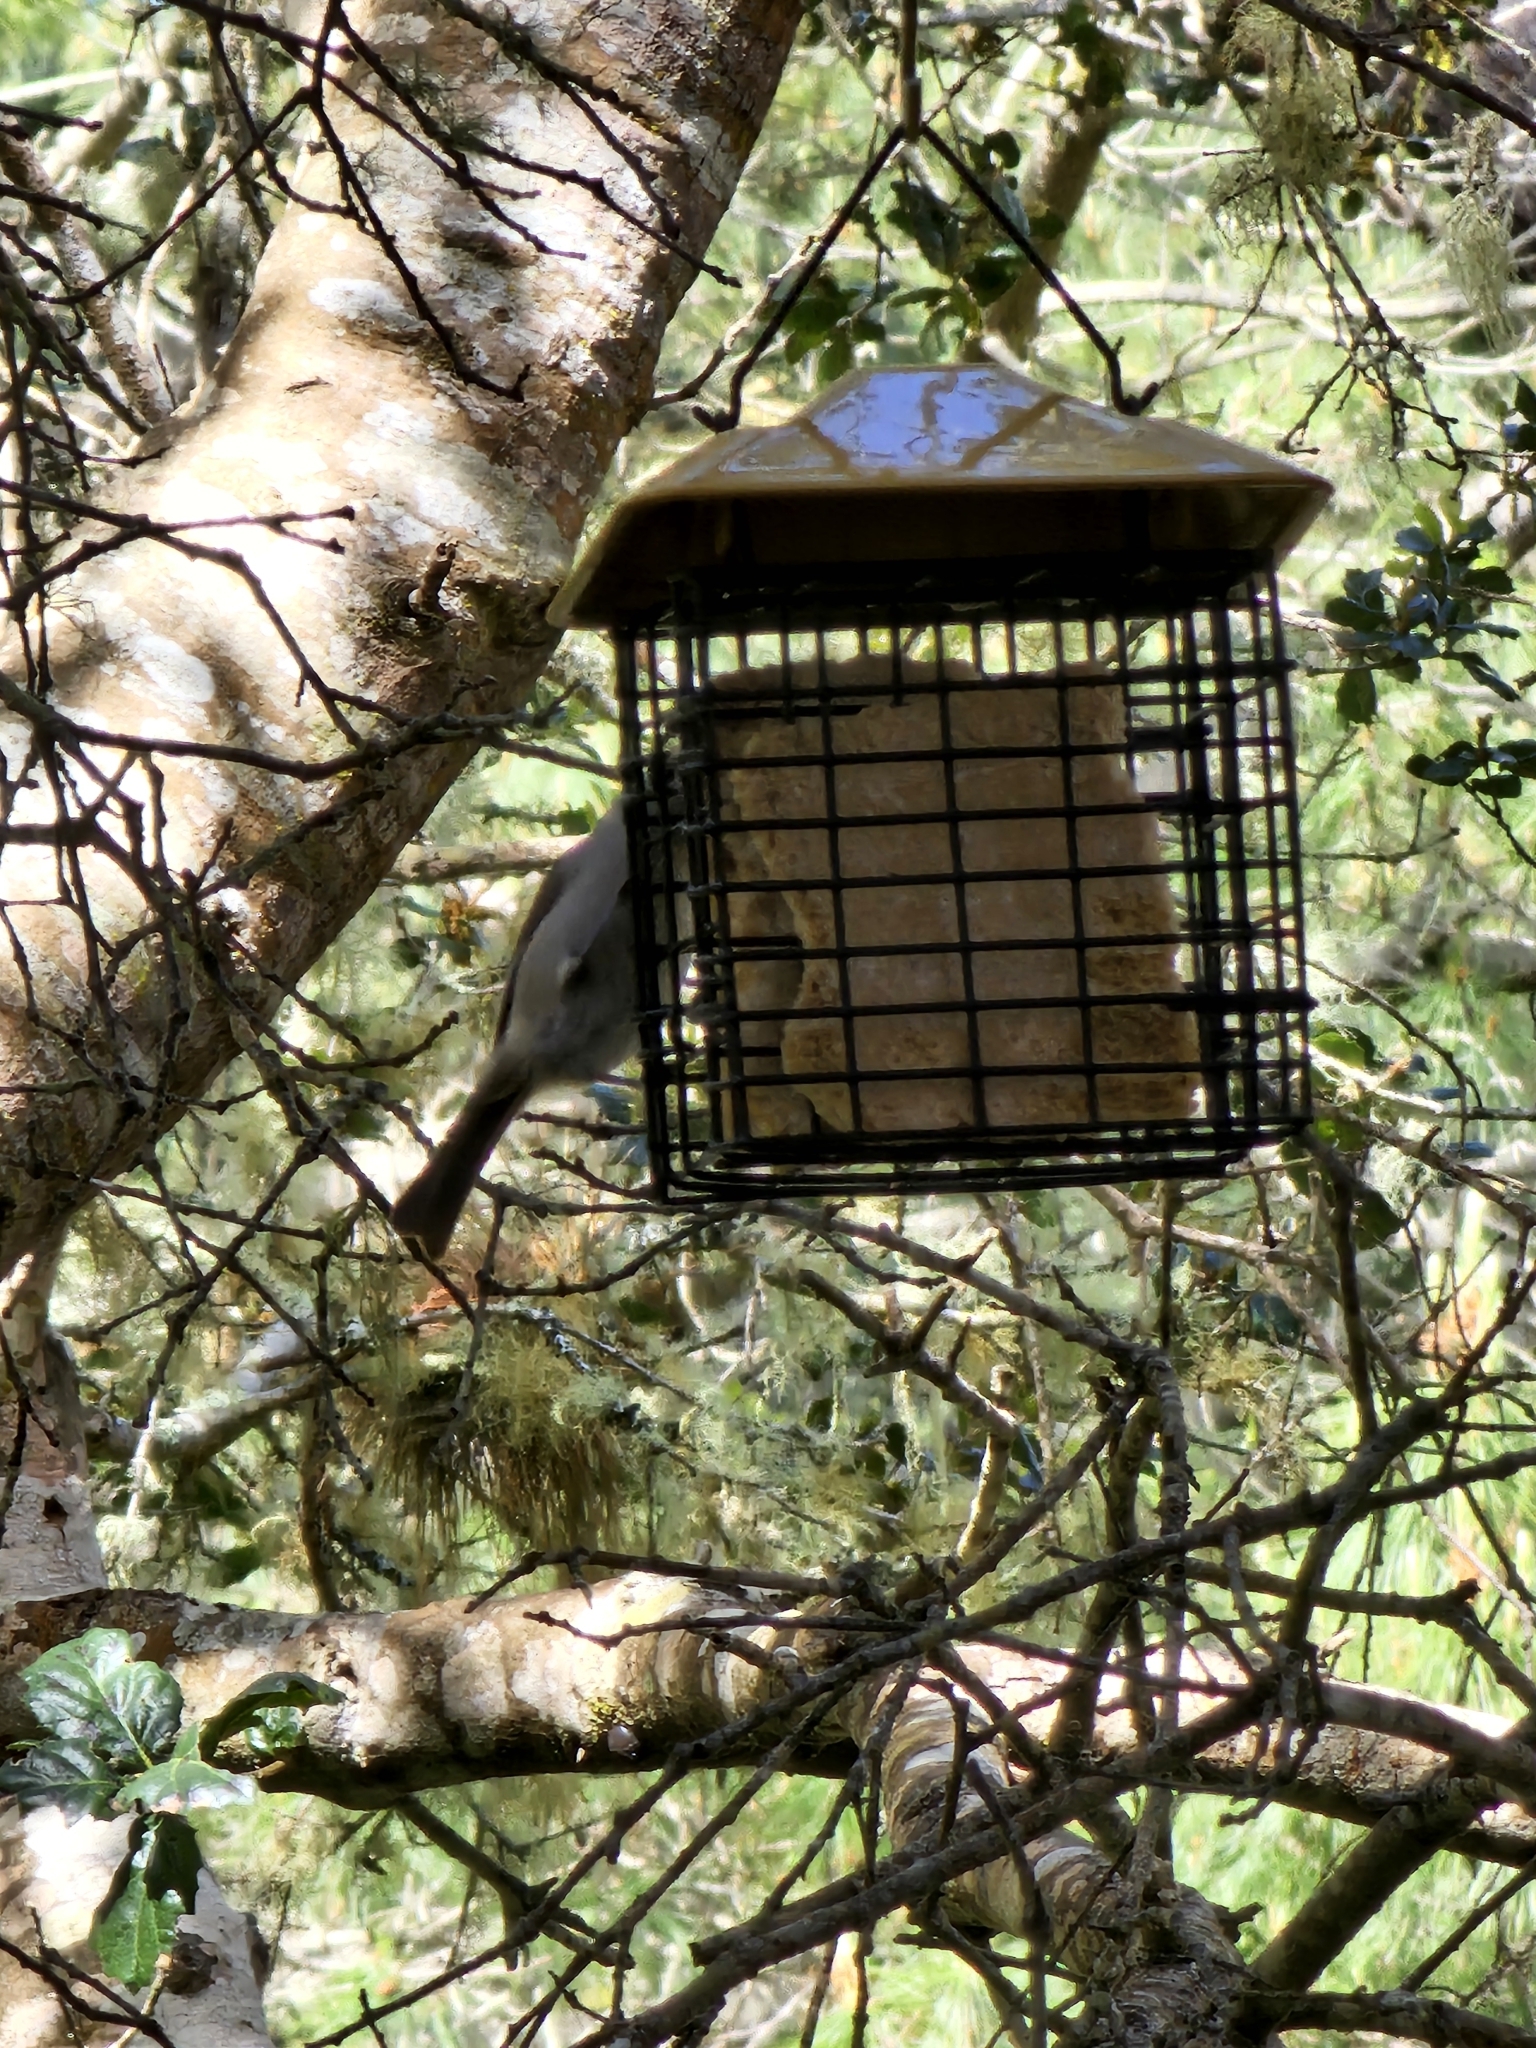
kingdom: Animalia
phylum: Chordata
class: Aves
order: Passeriformes
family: Paridae
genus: Baeolophus
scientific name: Baeolophus inornatus
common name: Oak titmouse
